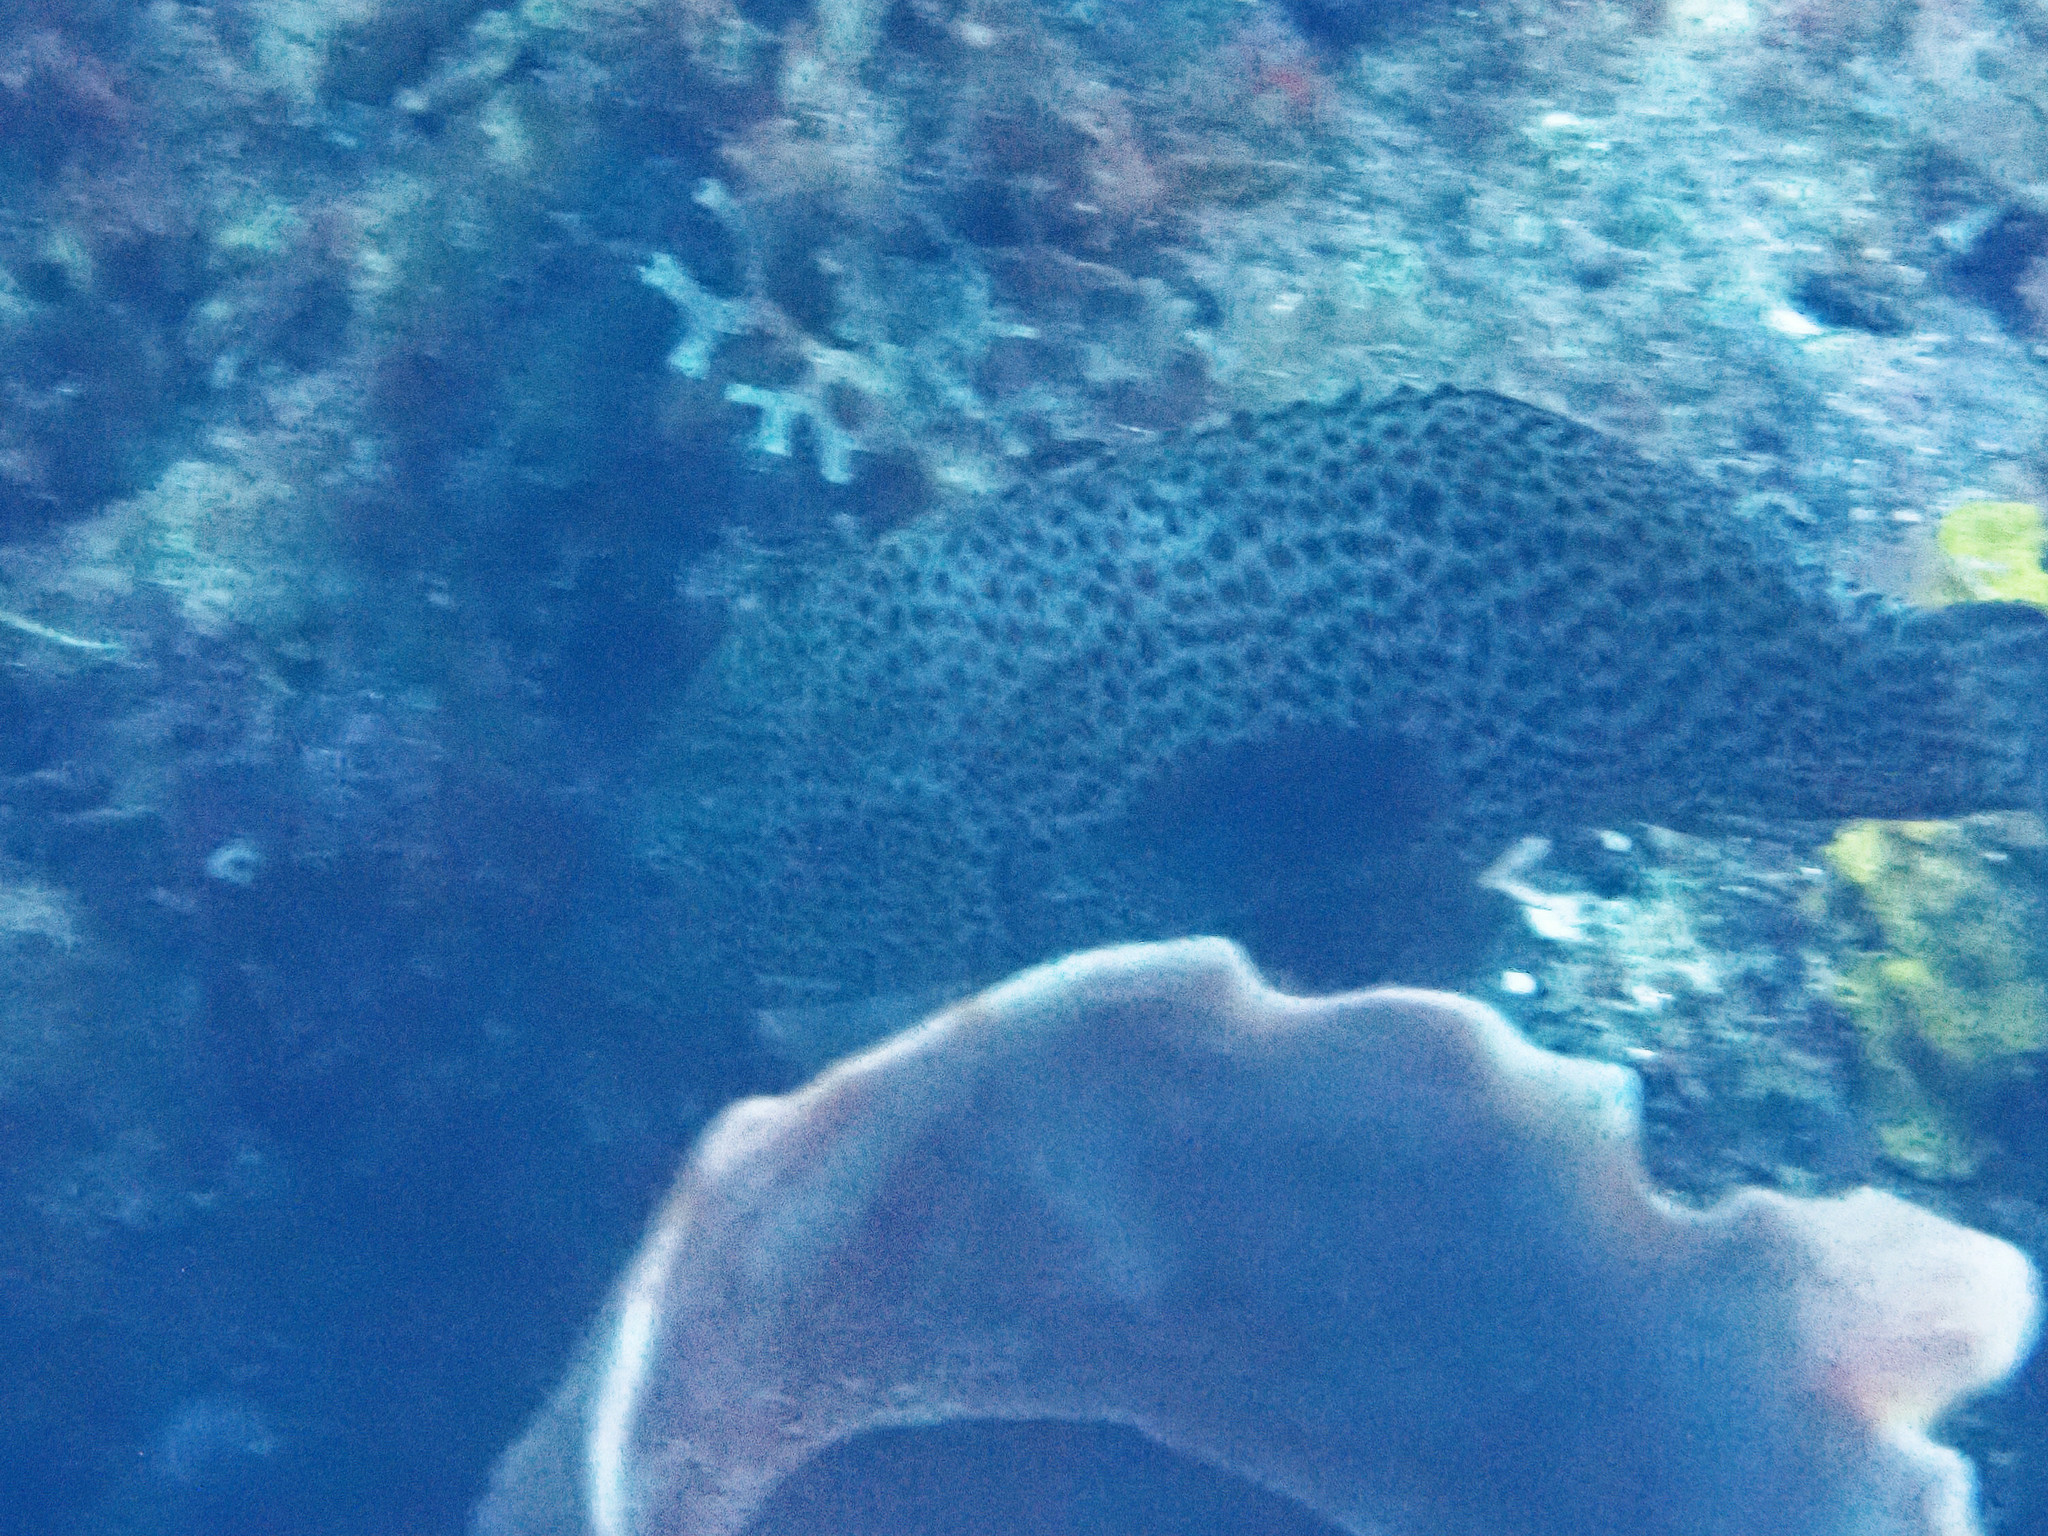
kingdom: Animalia
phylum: Chordata
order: Perciformes
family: Serranidae
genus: Cephalopholis
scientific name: Cephalopholis cruentata
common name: Graysby
